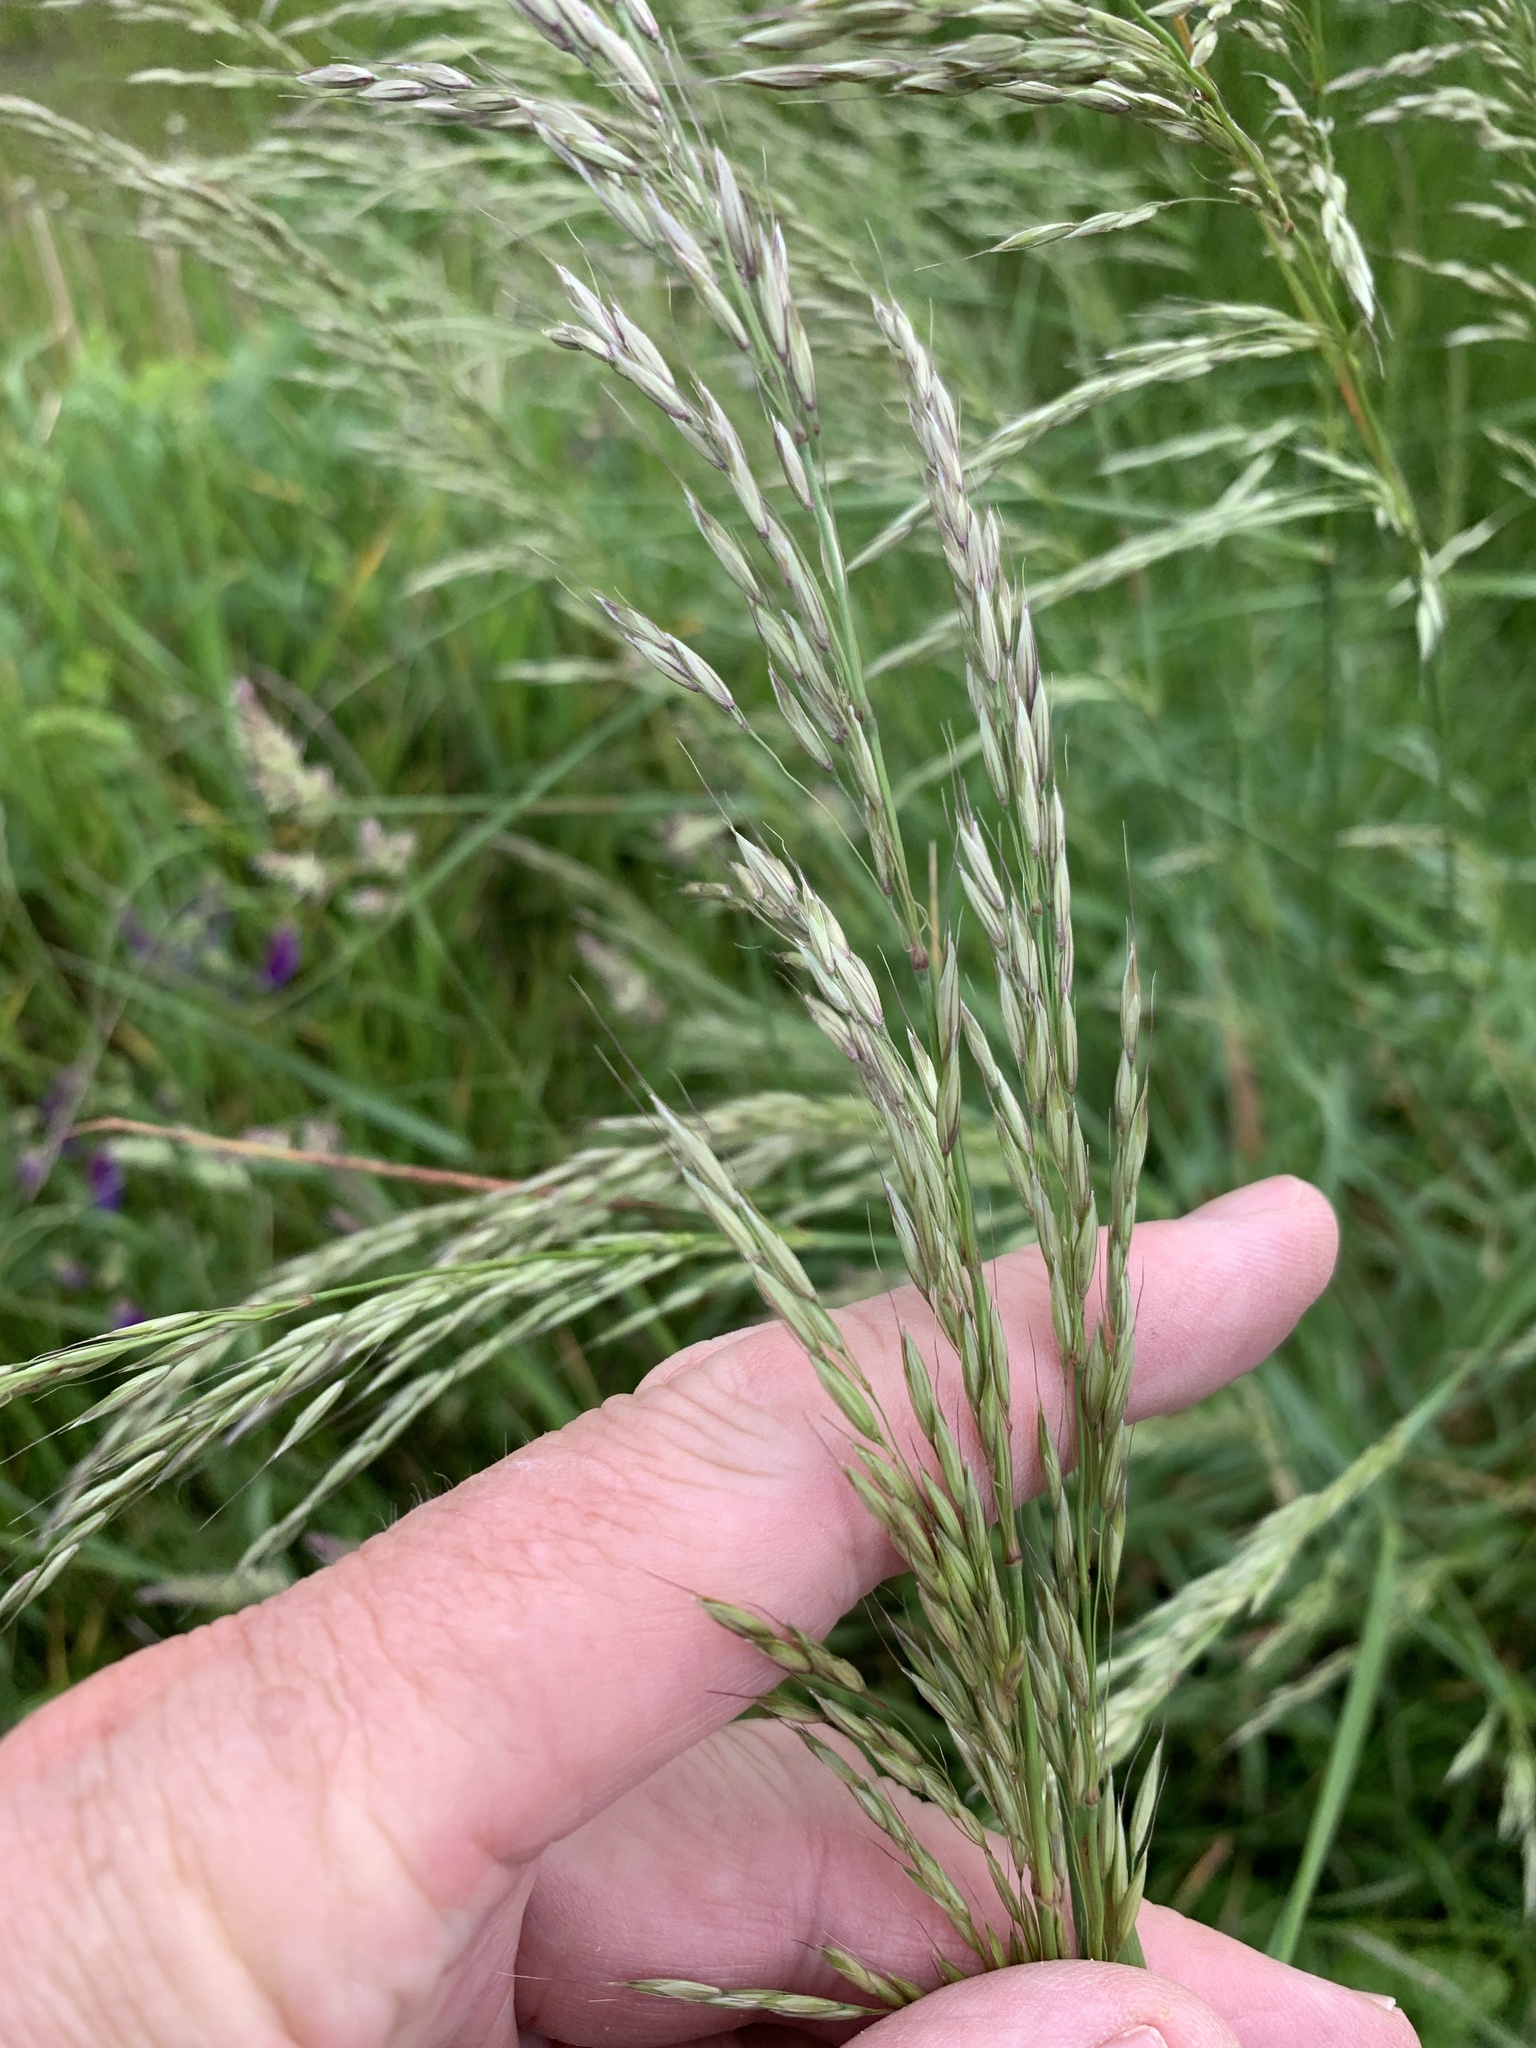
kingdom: Plantae
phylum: Tracheophyta
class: Liliopsida
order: Poales
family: Poaceae
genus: Arrhenatherum
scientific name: Arrhenatherum elatius
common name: Tall oatgrass
